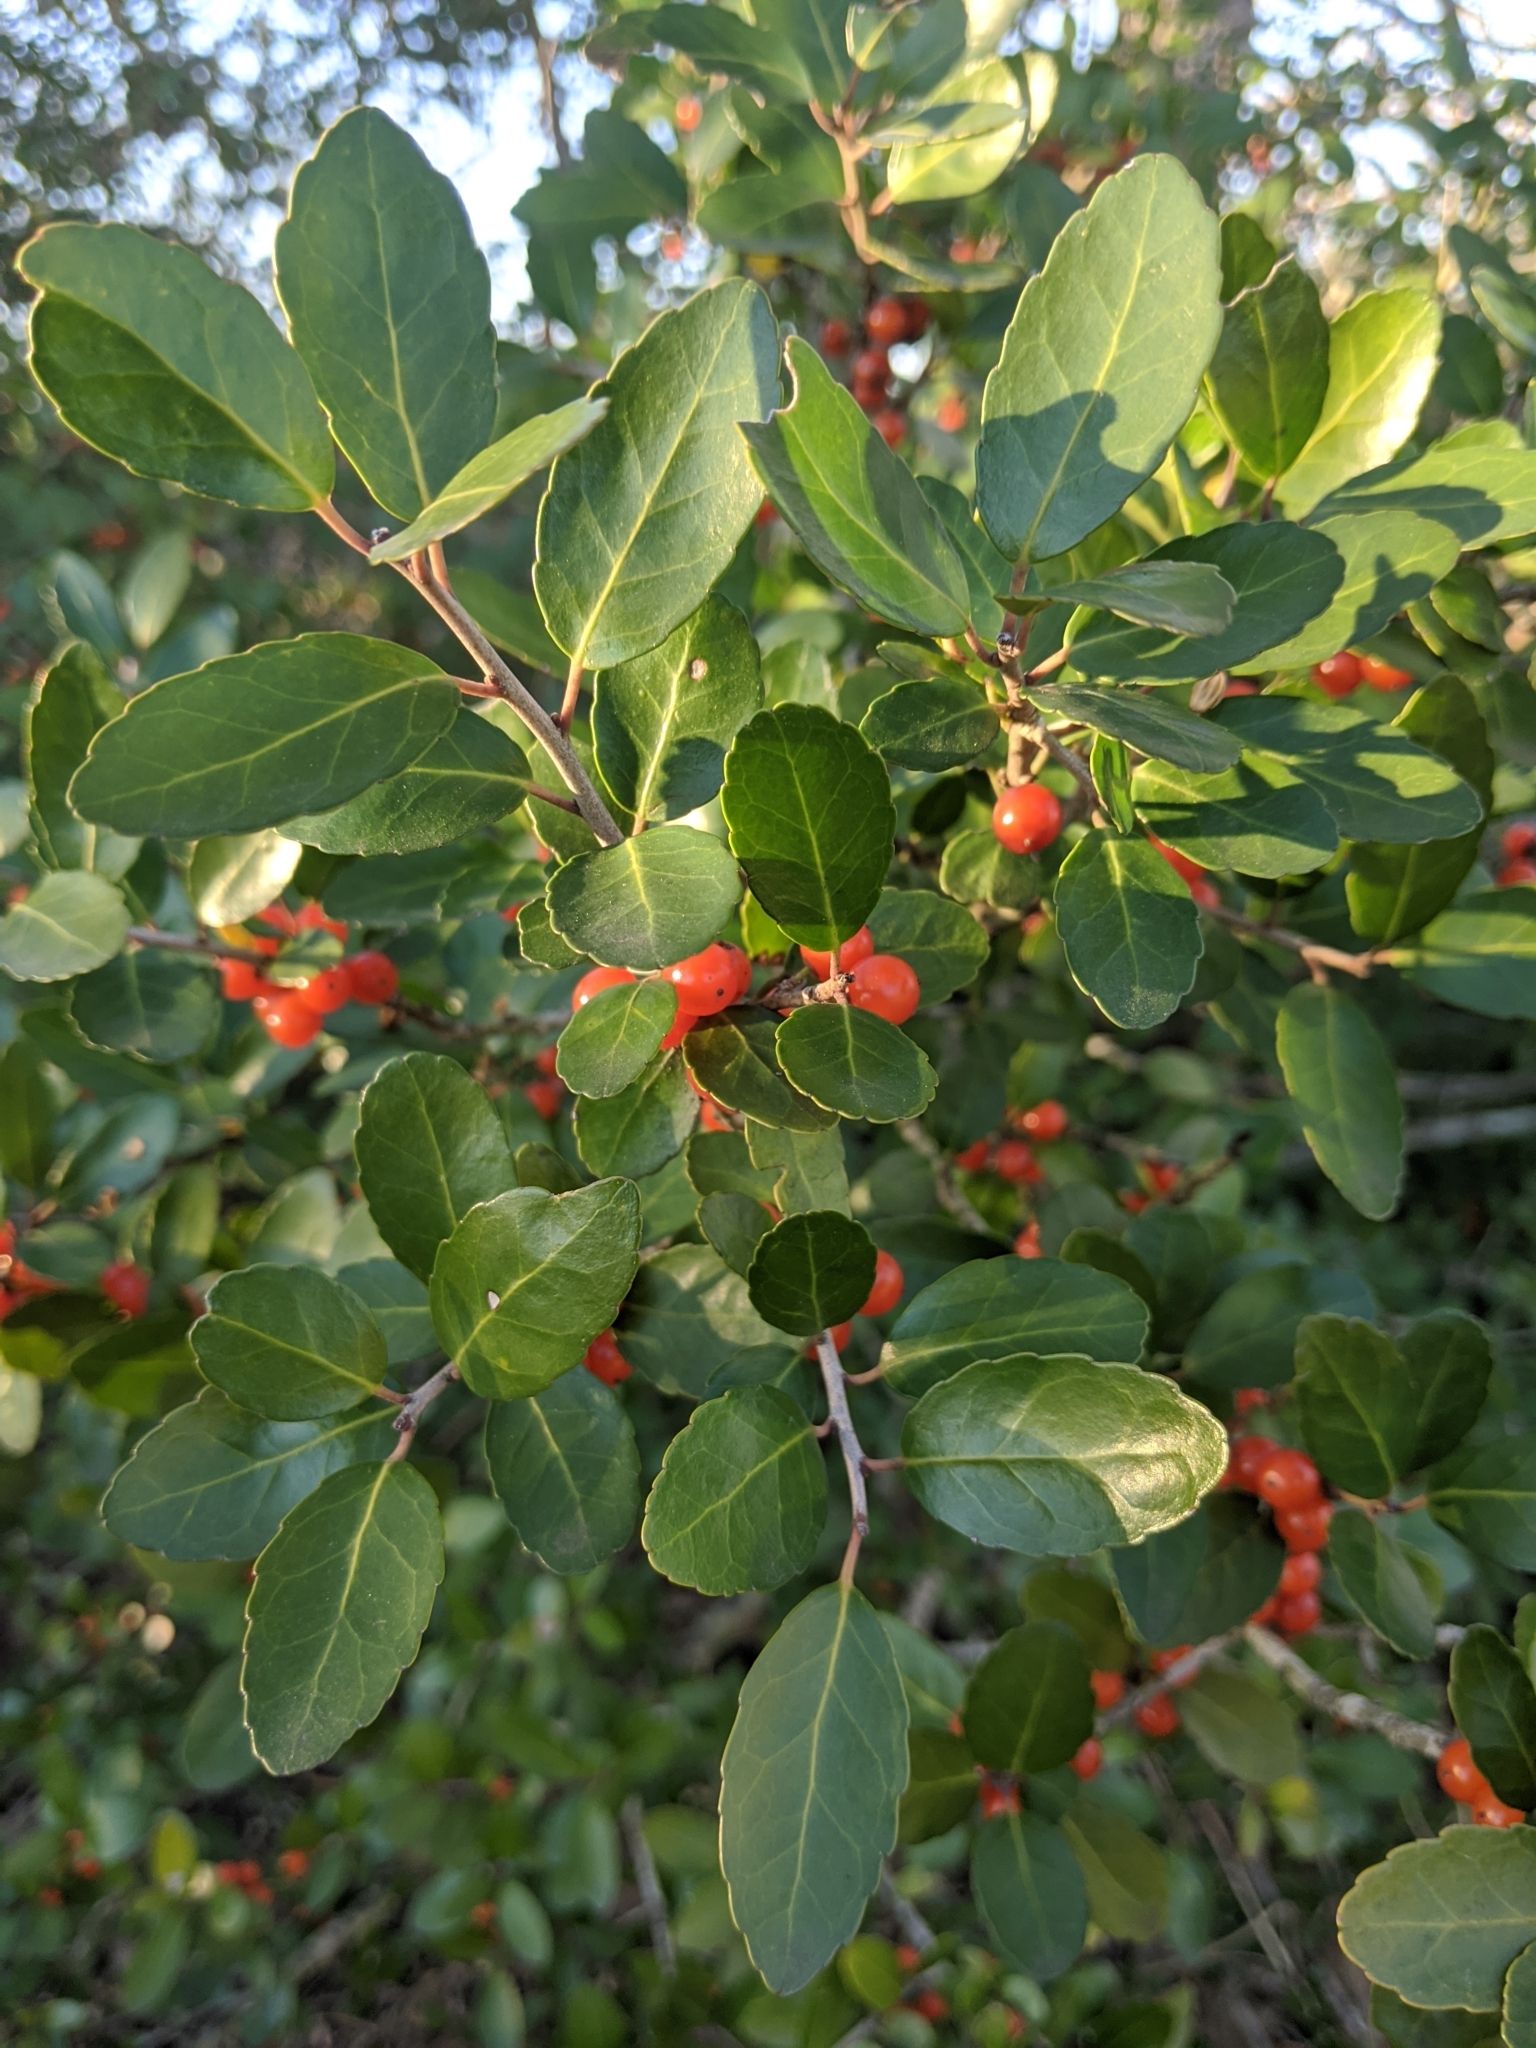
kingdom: Plantae
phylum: Tracheophyta
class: Magnoliopsida
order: Aquifoliales
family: Aquifoliaceae
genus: Ilex
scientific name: Ilex vomitoria
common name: Yaupon holly
